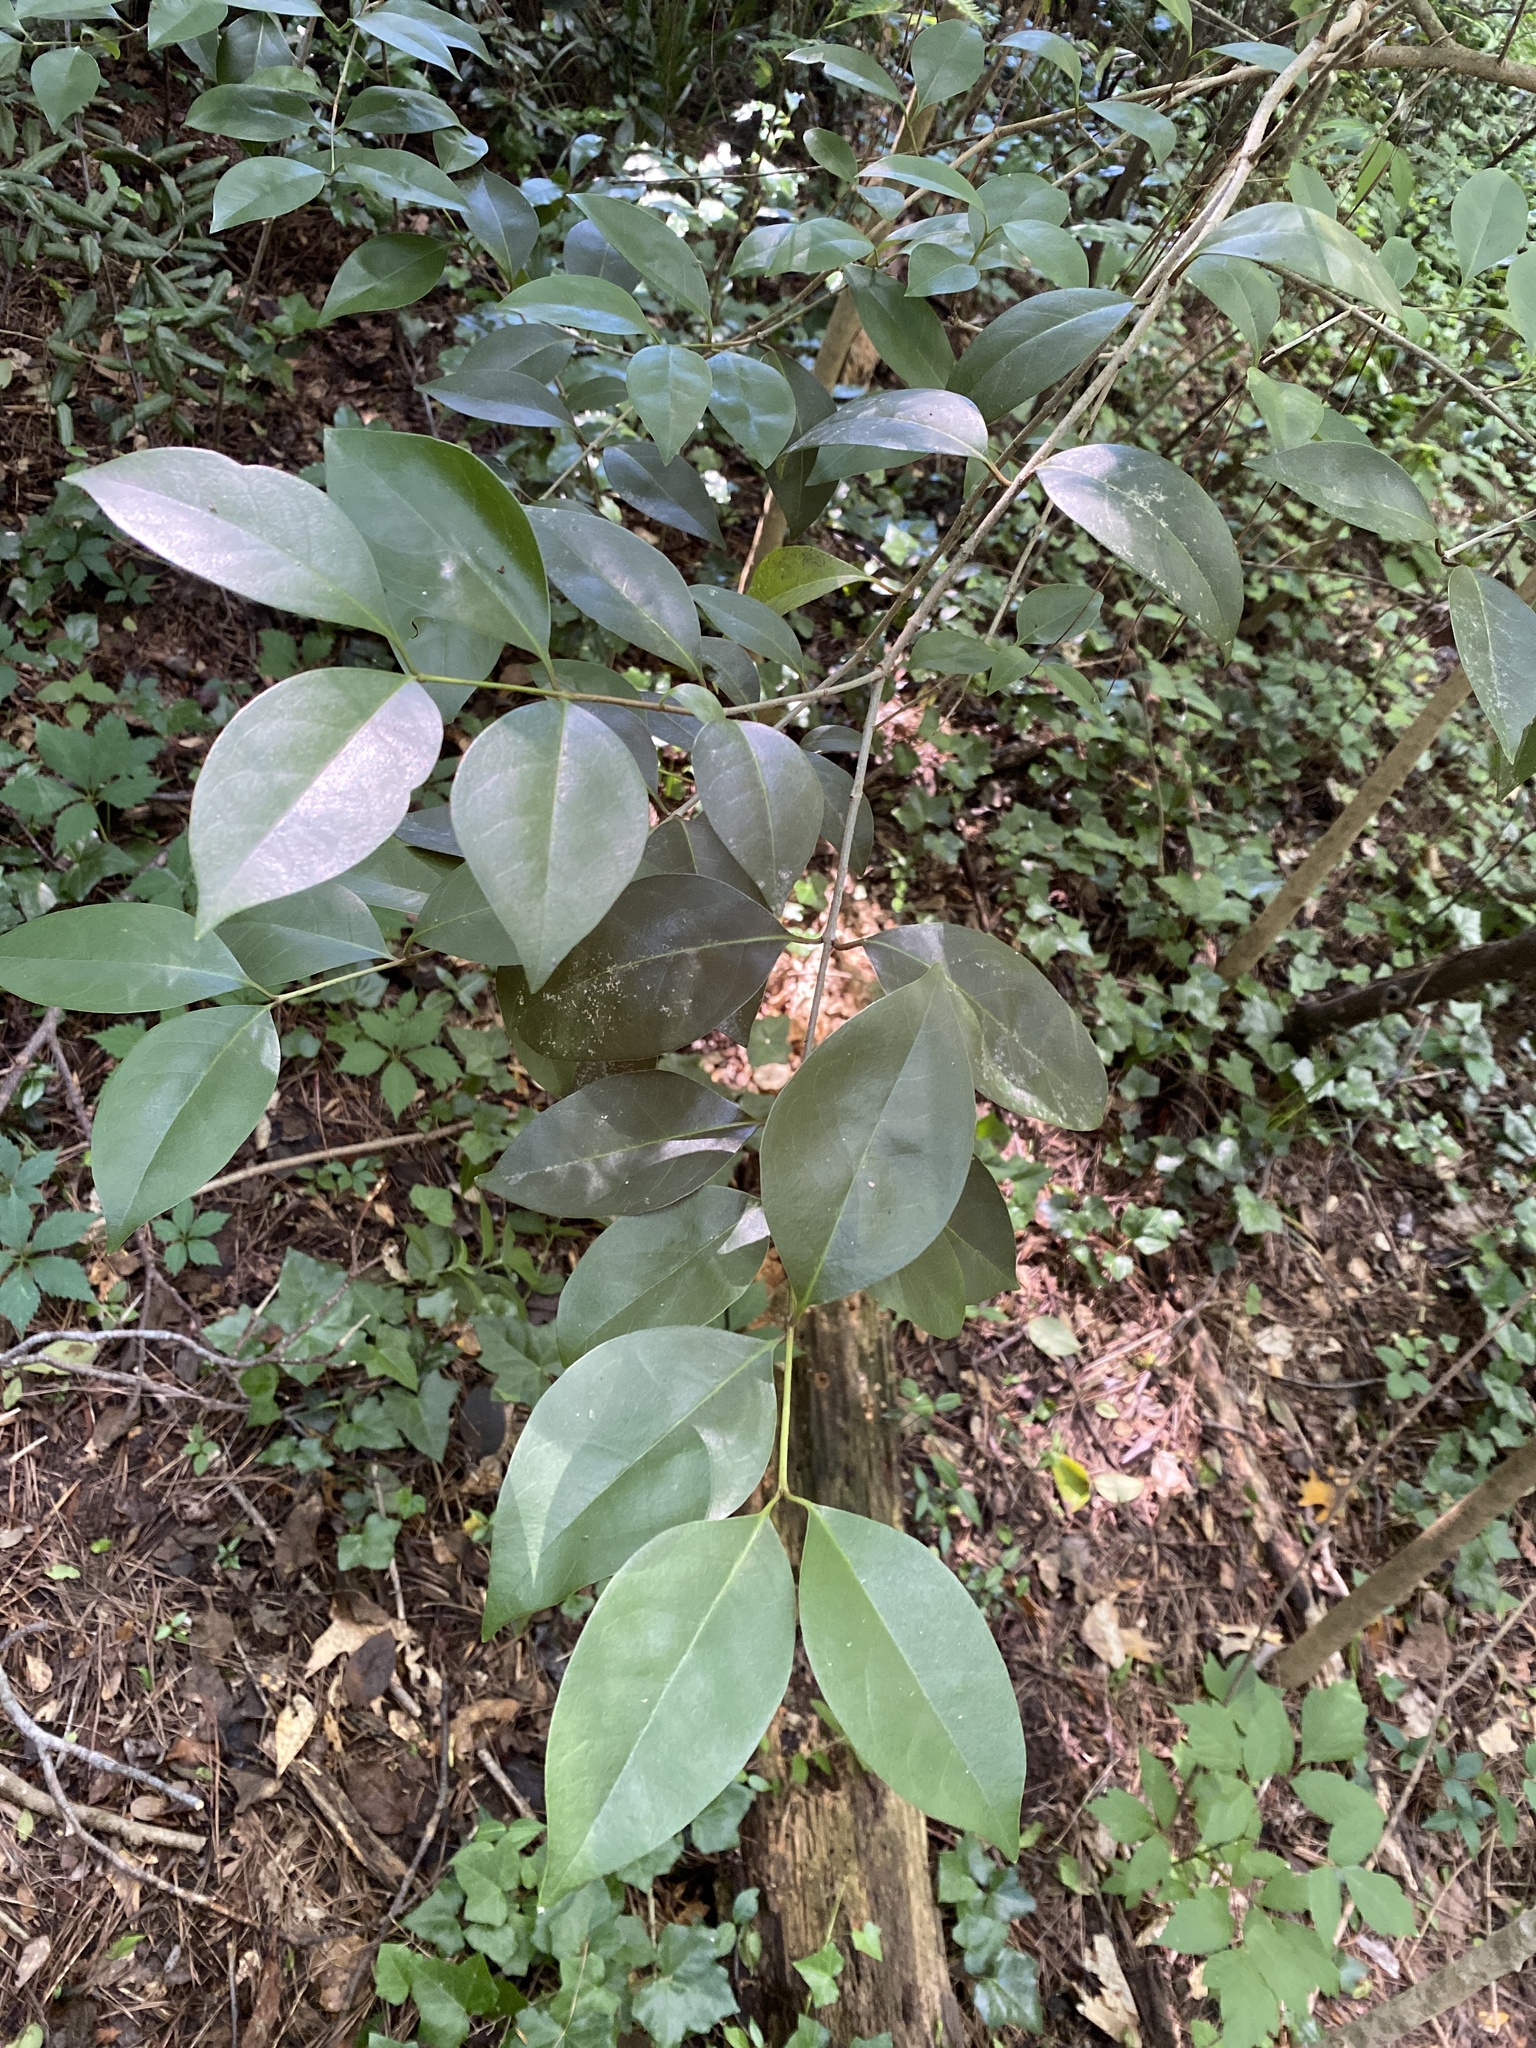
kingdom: Plantae
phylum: Tracheophyta
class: Magnoliopsida
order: Lamiales
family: Oleaceae
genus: Ligustrum
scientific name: Ligustrum lucidum
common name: Glossy privet
